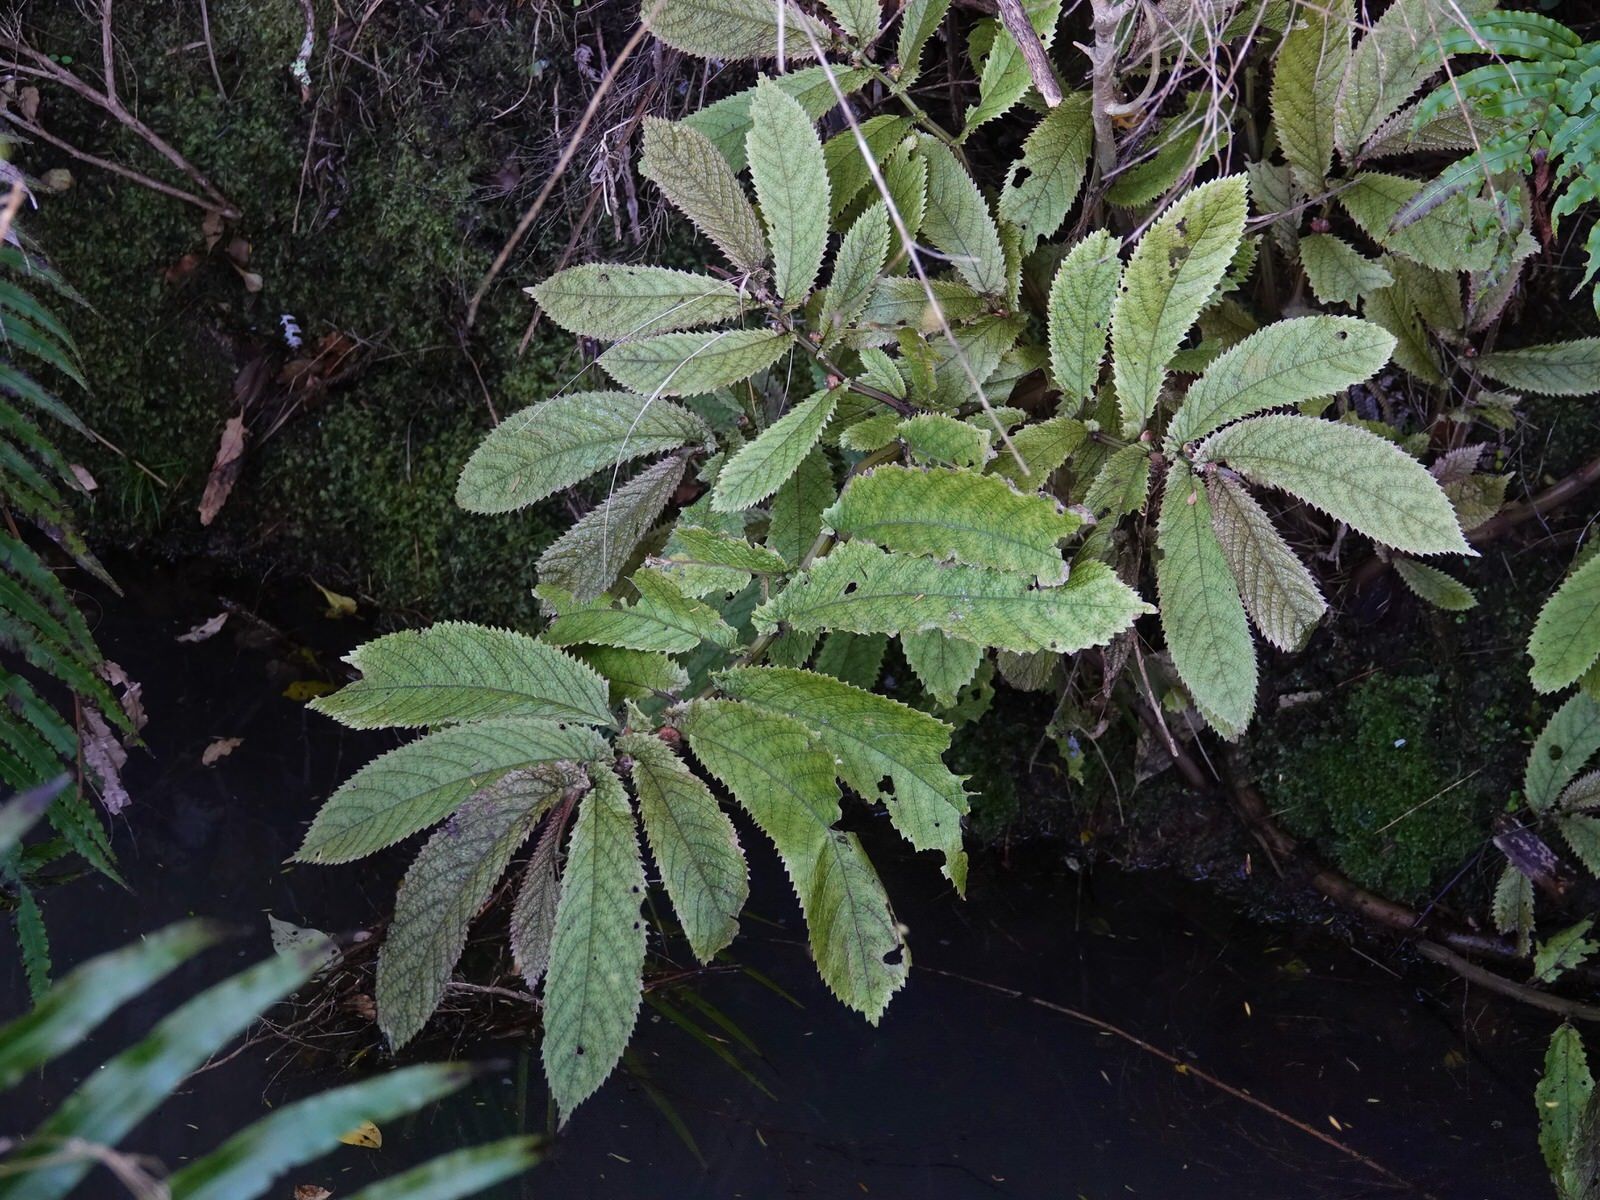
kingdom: Plantae
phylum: Tracheophyta
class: Magnoliopsida
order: Rosales
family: Urticaceae
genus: Elatostema
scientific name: Elatostema rugosum
